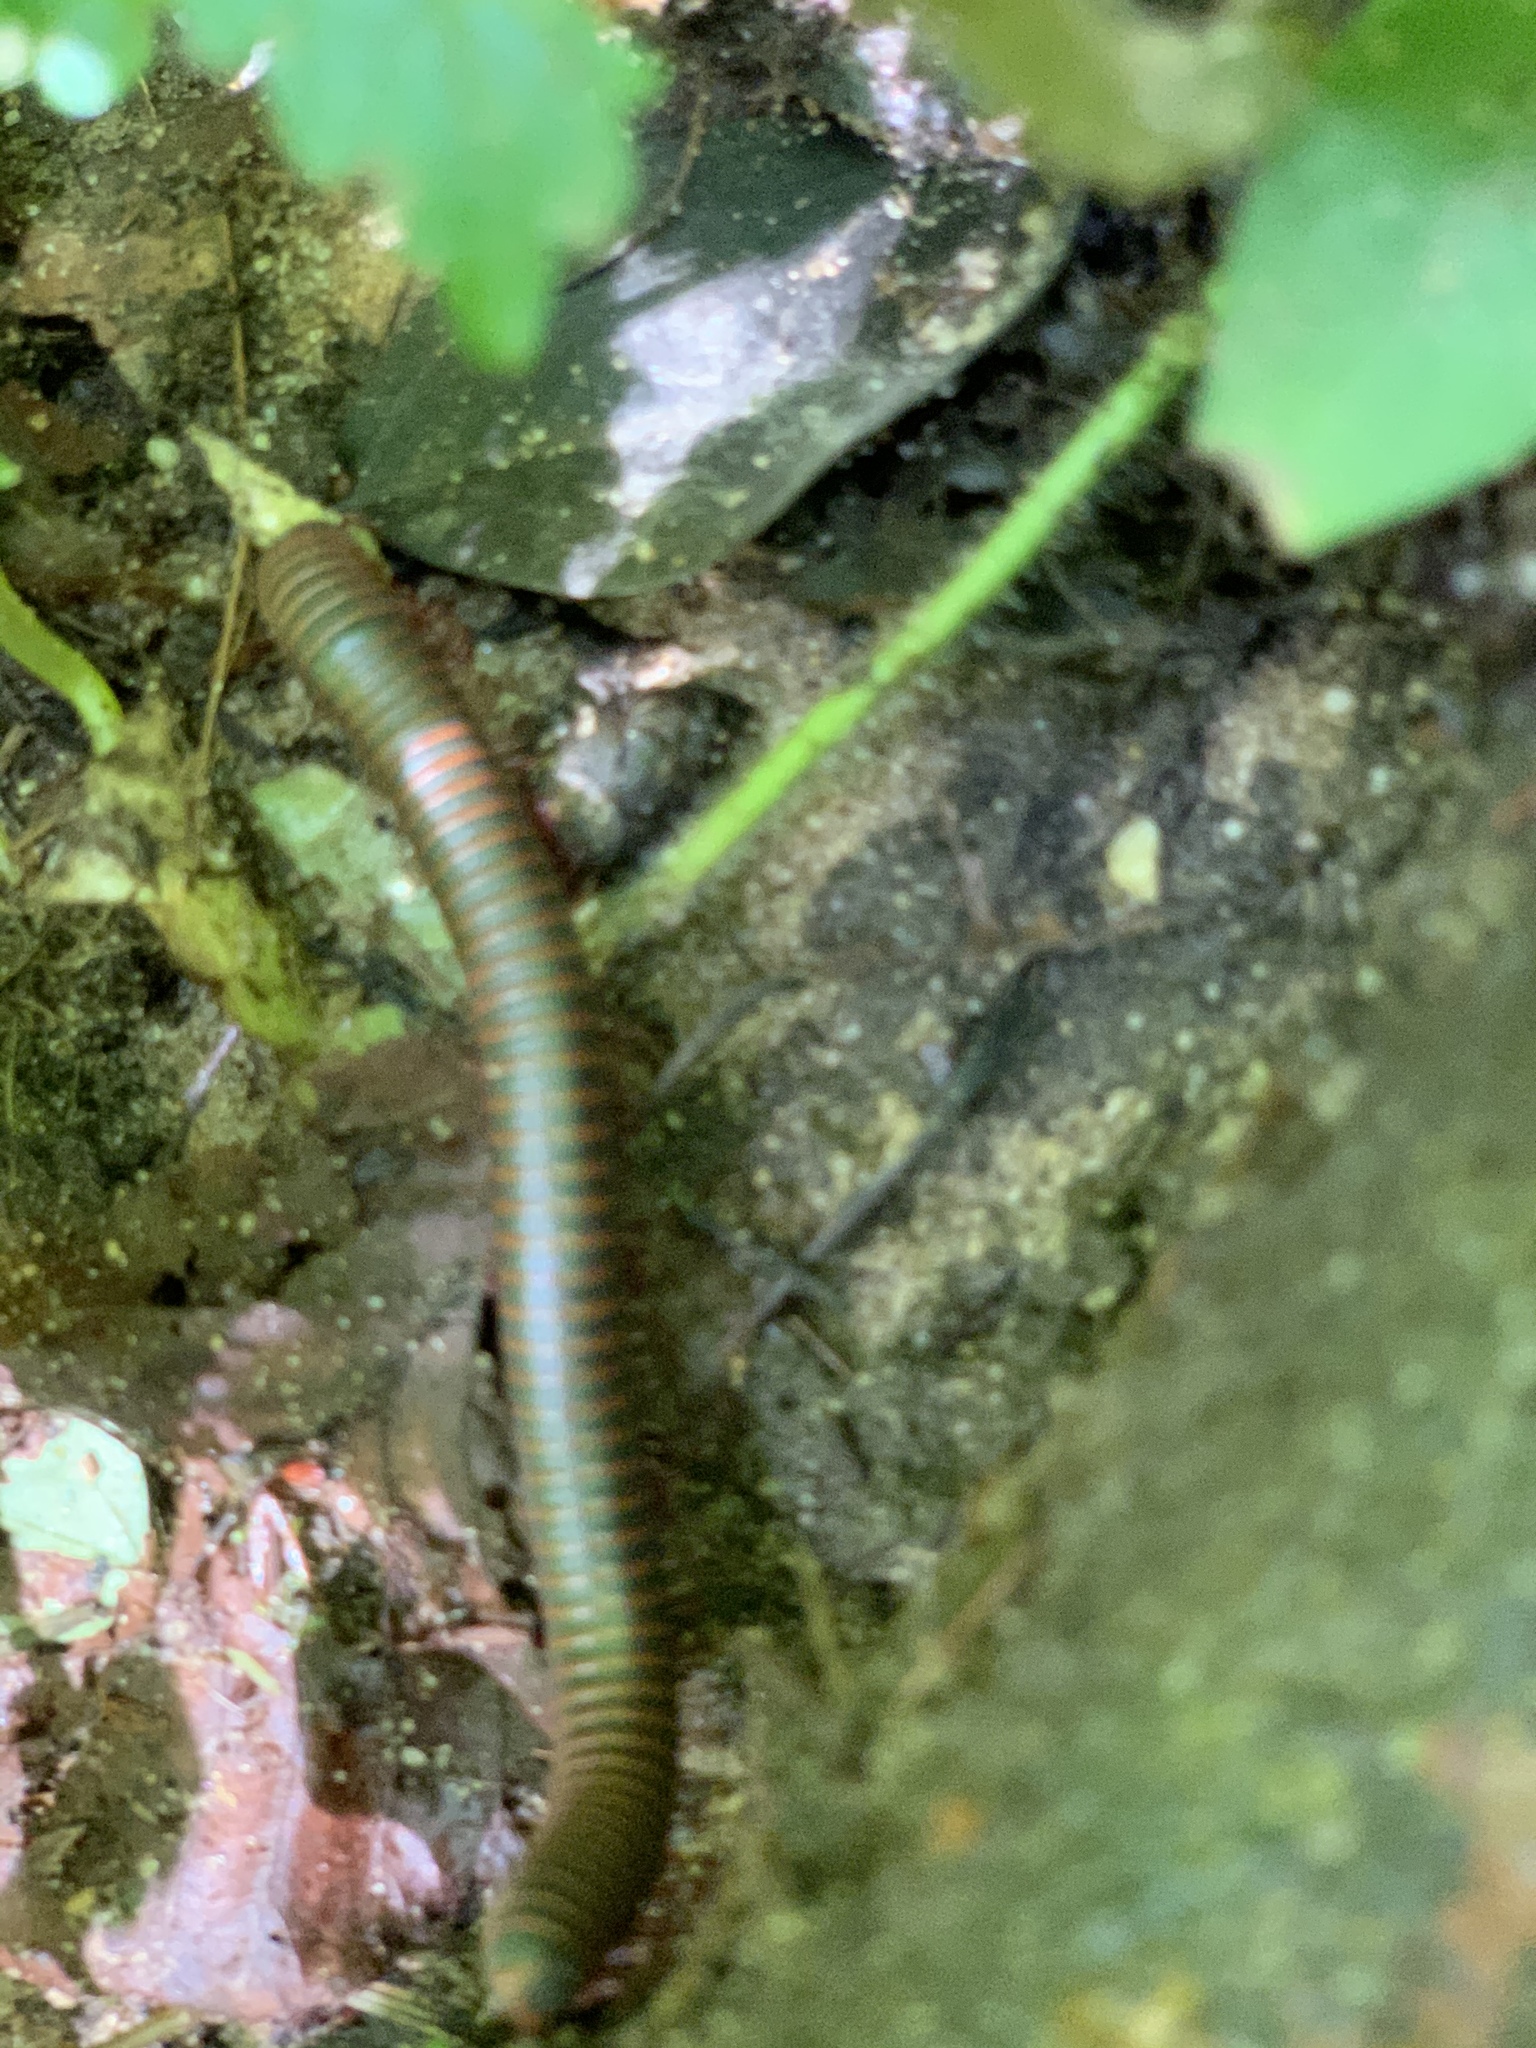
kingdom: Animalia
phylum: Arthropoda
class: Diplopoda
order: Spirobolida
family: Spirobolidae
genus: Narceus
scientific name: Narceus
